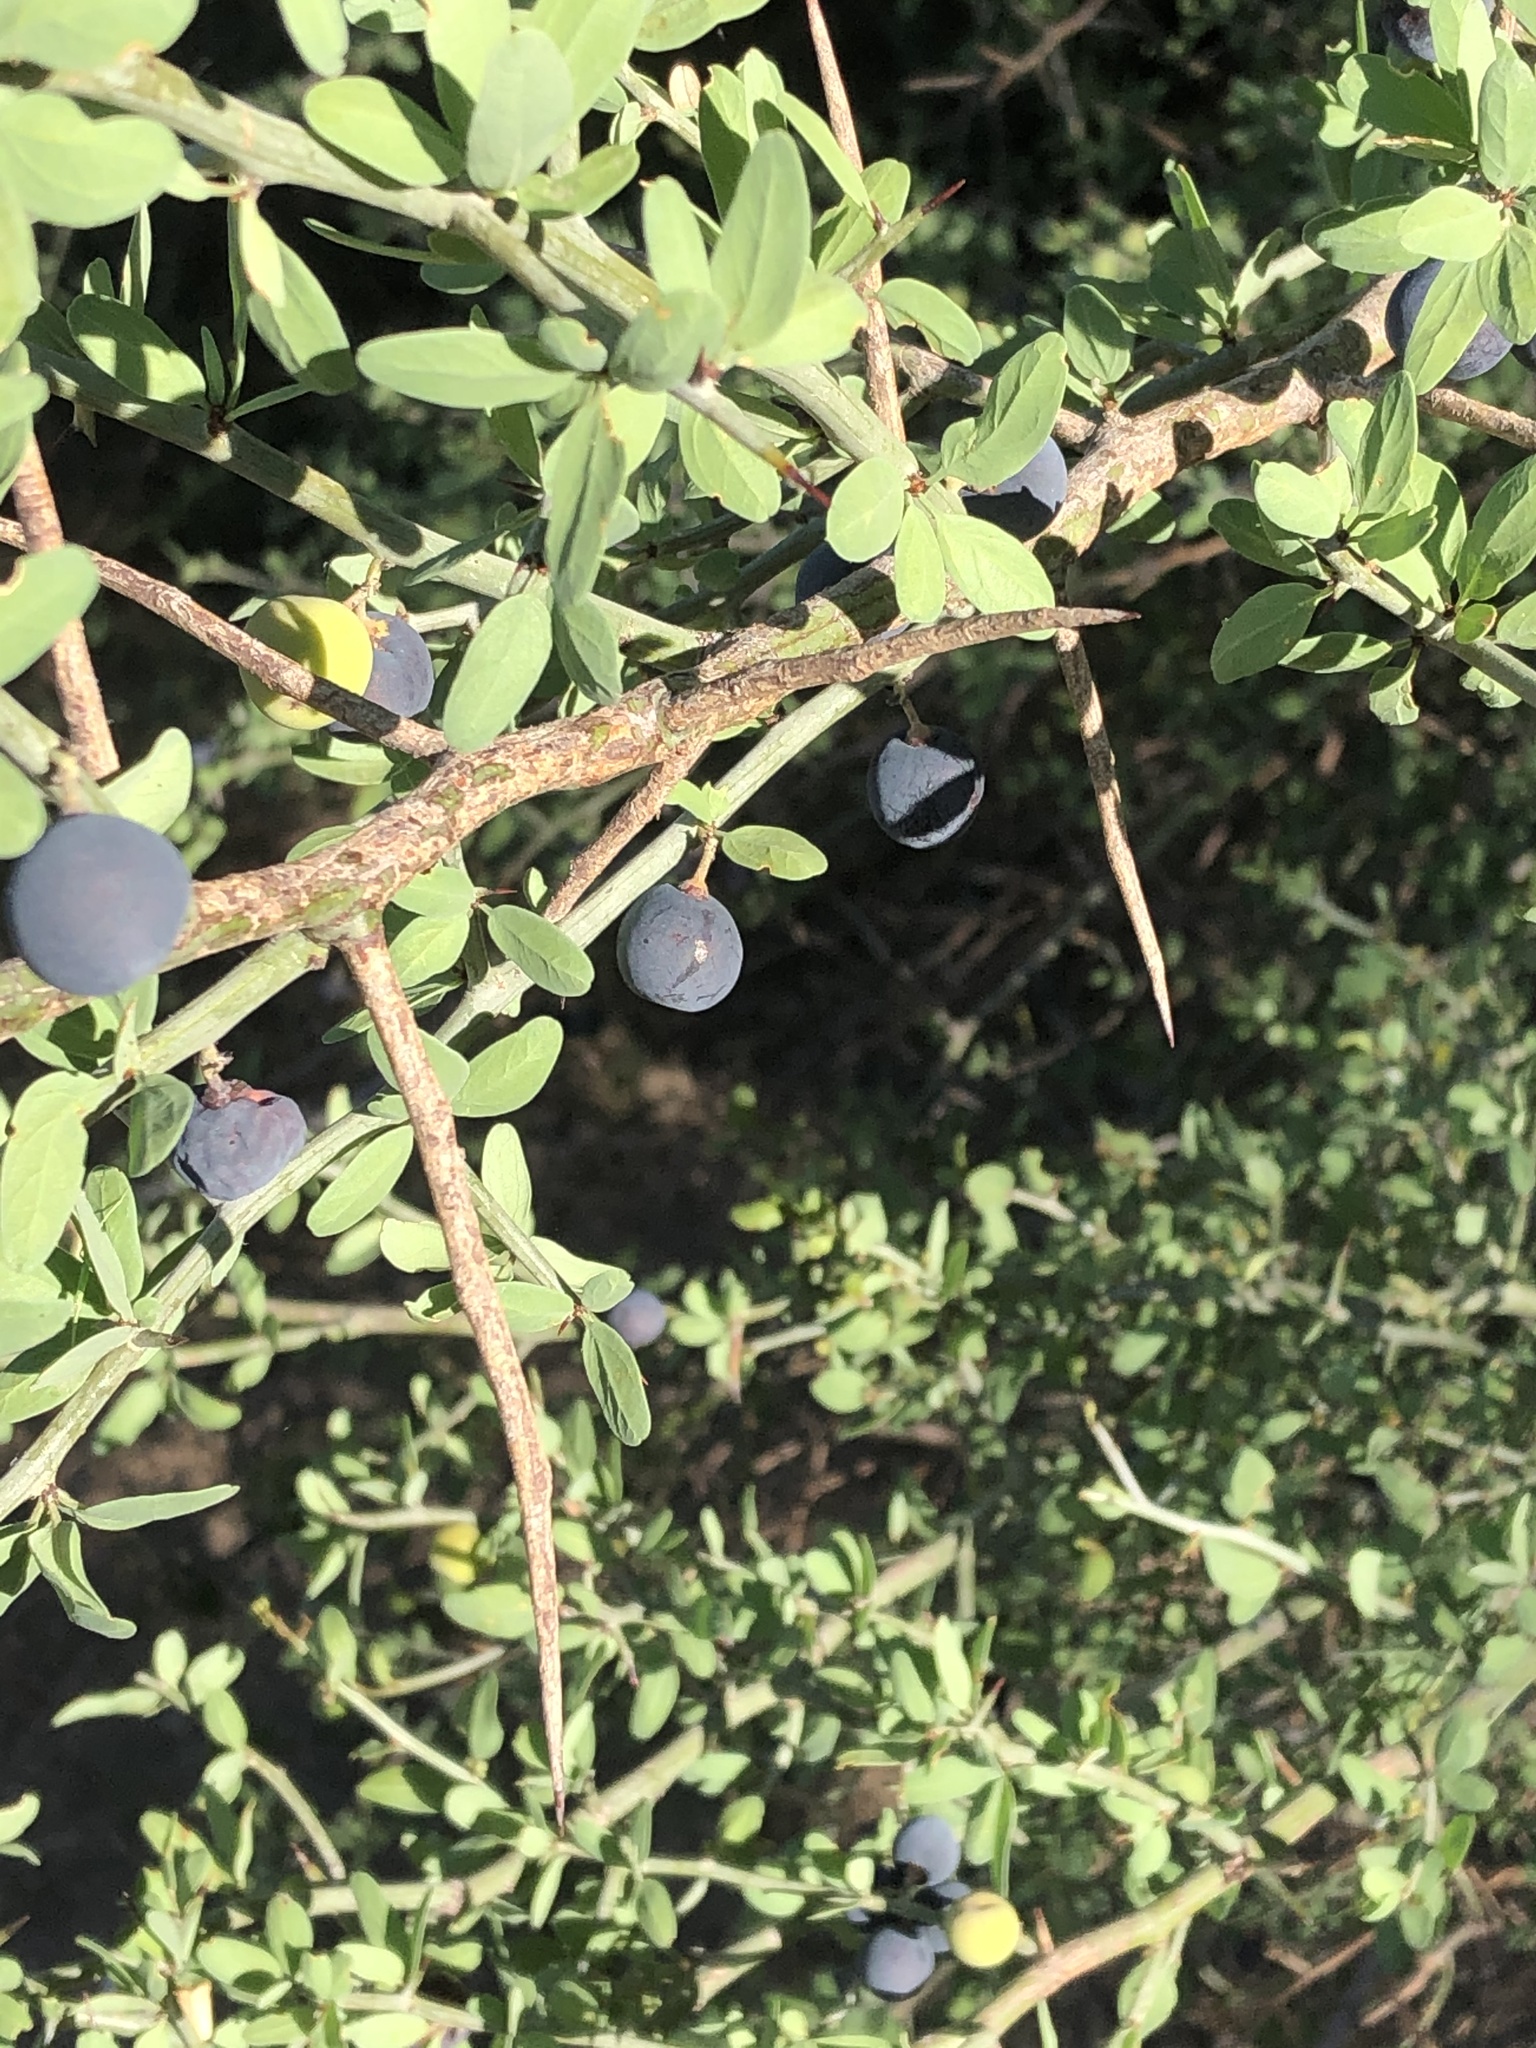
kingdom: Plantae
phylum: Tracheophyta
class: Magnoliopsida
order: Rosales
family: Rhamnaceae
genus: Sarcomphalus
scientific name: Sarcomphalus obtusifolius
